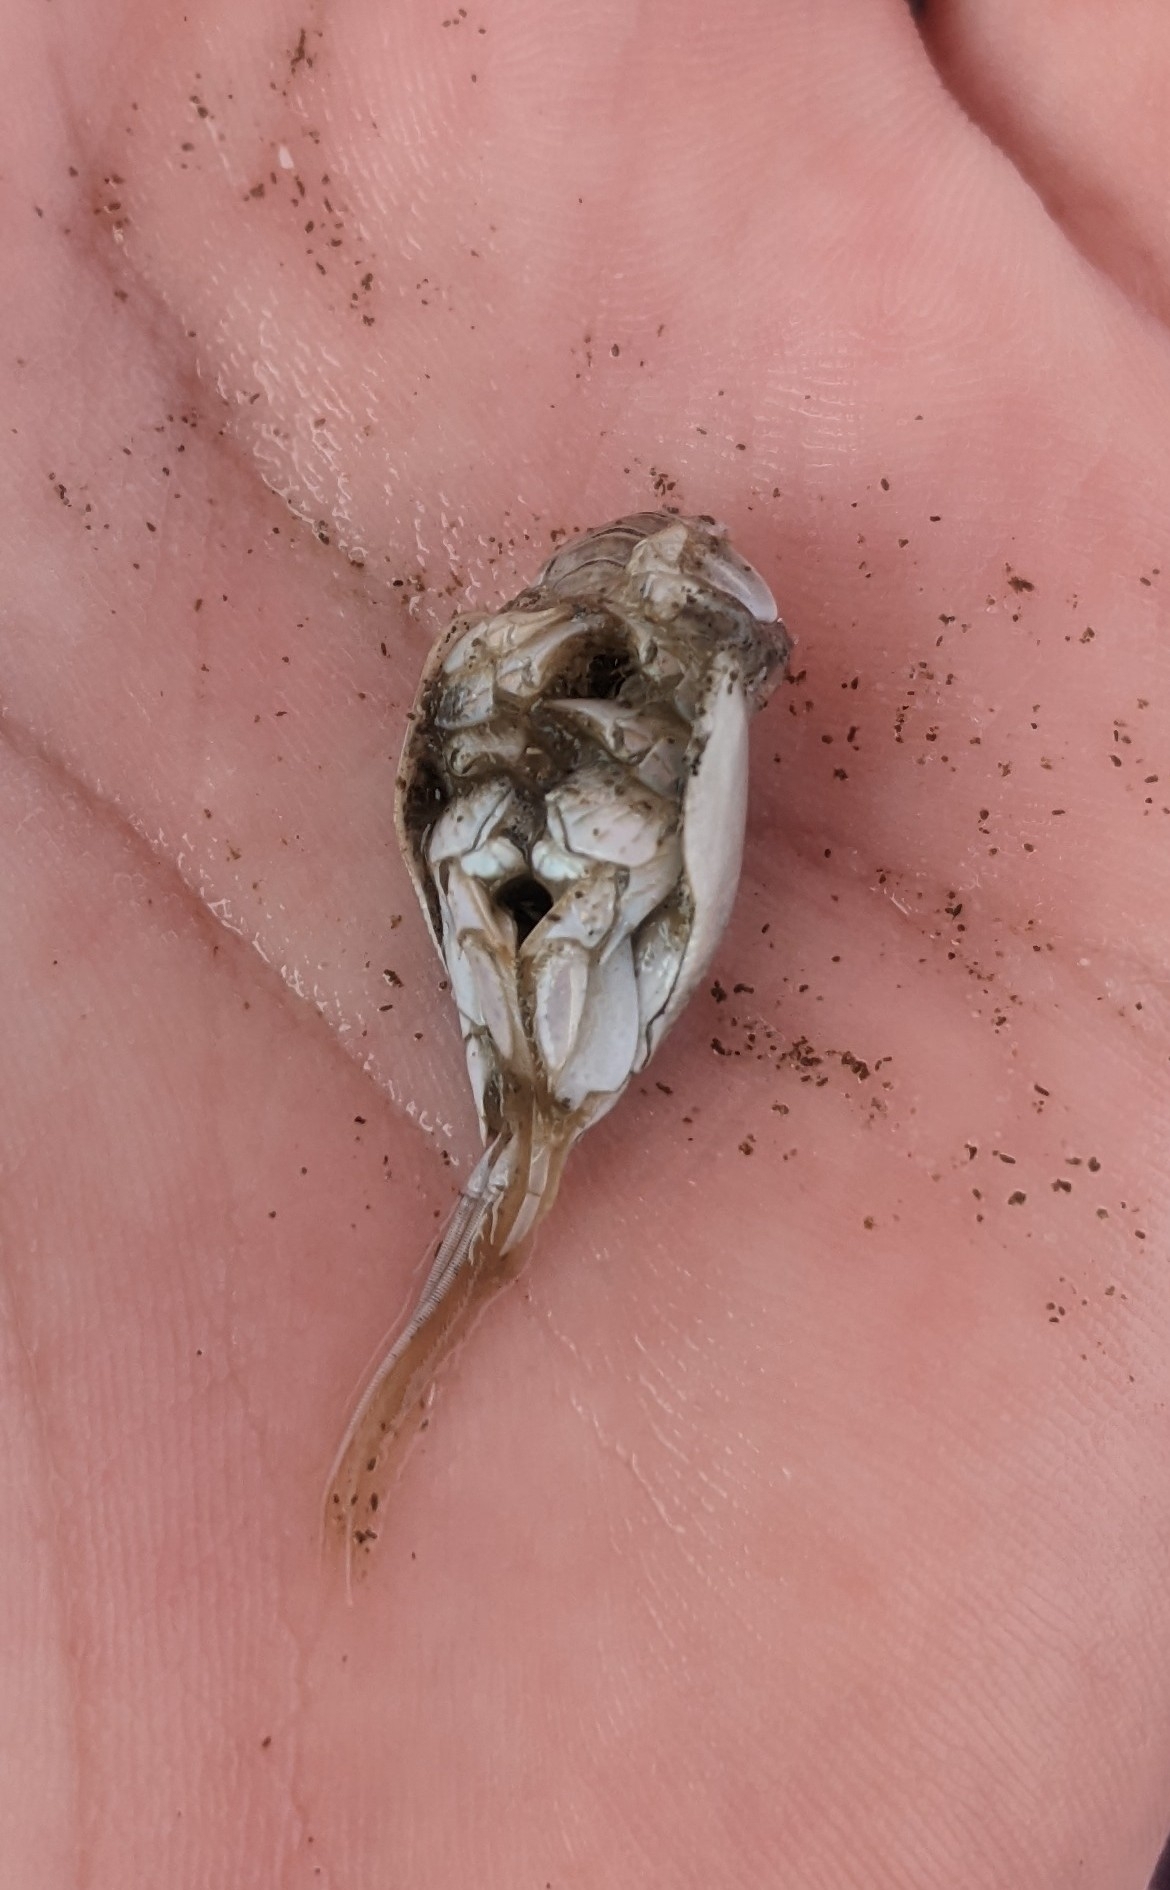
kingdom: Animalia
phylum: Arthropoda
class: Malacostraca
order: Decapoda
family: Hippidae
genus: Emerita
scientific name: Emerita talpoida
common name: Atlantic sand crab
